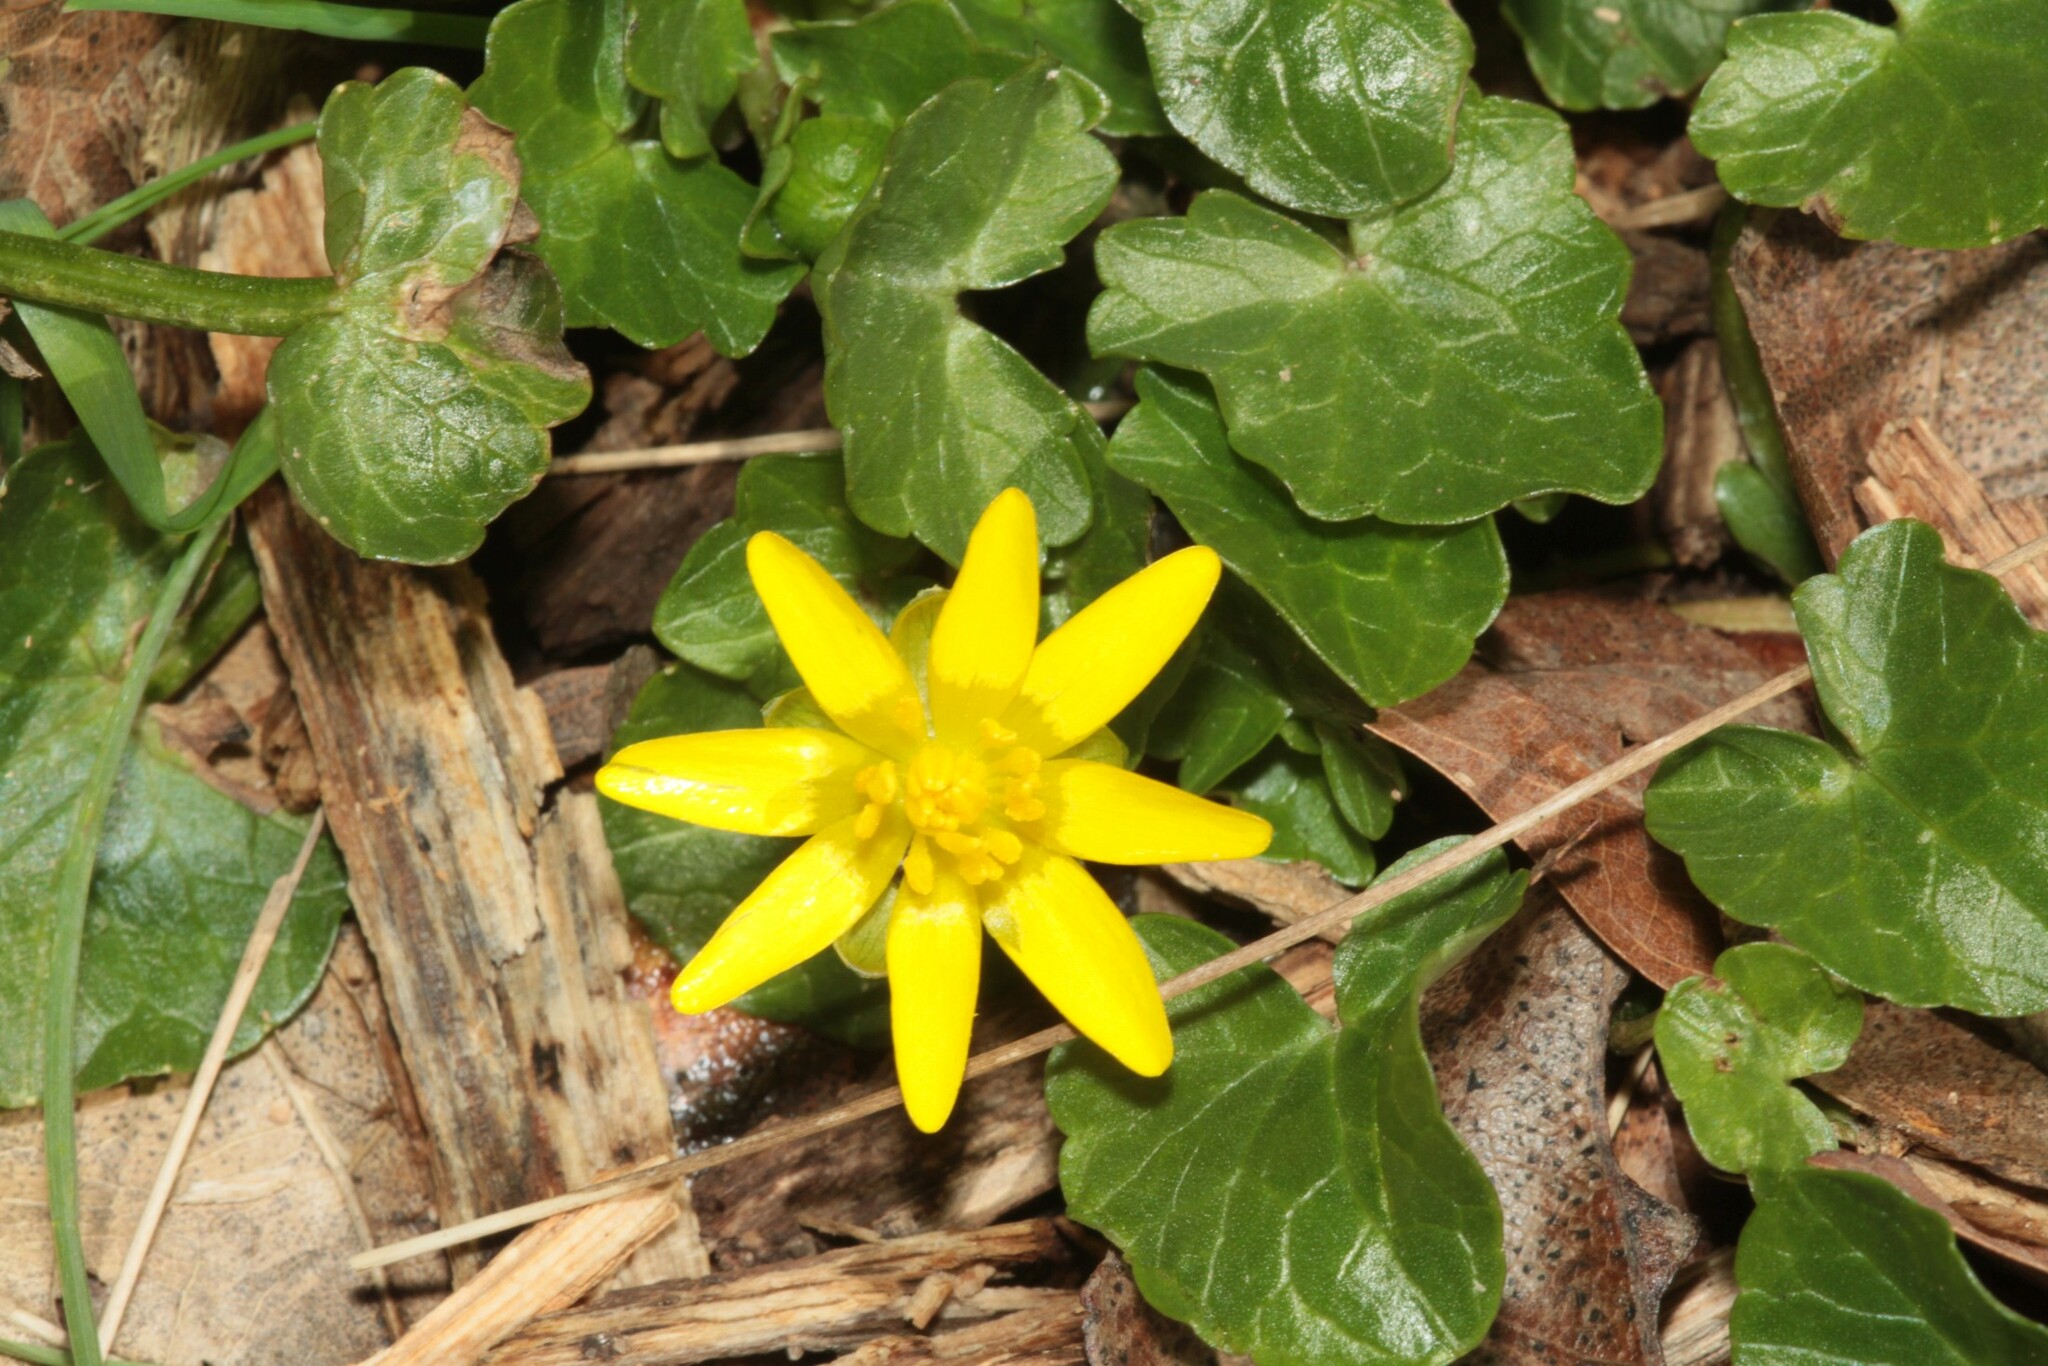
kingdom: Plantae
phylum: Tracheophyta
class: Magnoliopsida
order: Ranunculales
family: Ranunculaceae
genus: Ficaria
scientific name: Ficaria verna
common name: Lesser celandine
